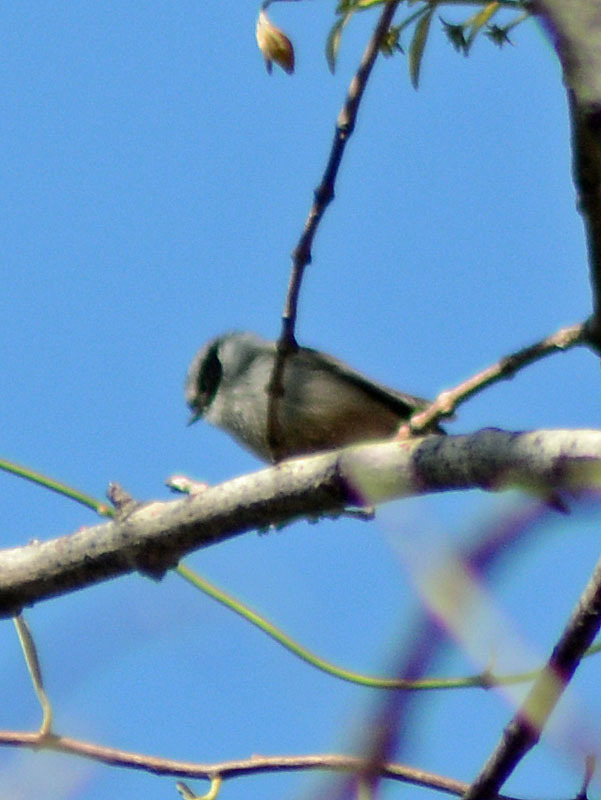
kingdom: Animalia
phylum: Chordata
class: Aves
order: Passeriformes
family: Aegithalidae
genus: Psaltriparus
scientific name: Psaltriparus minimus
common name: American bushtit
